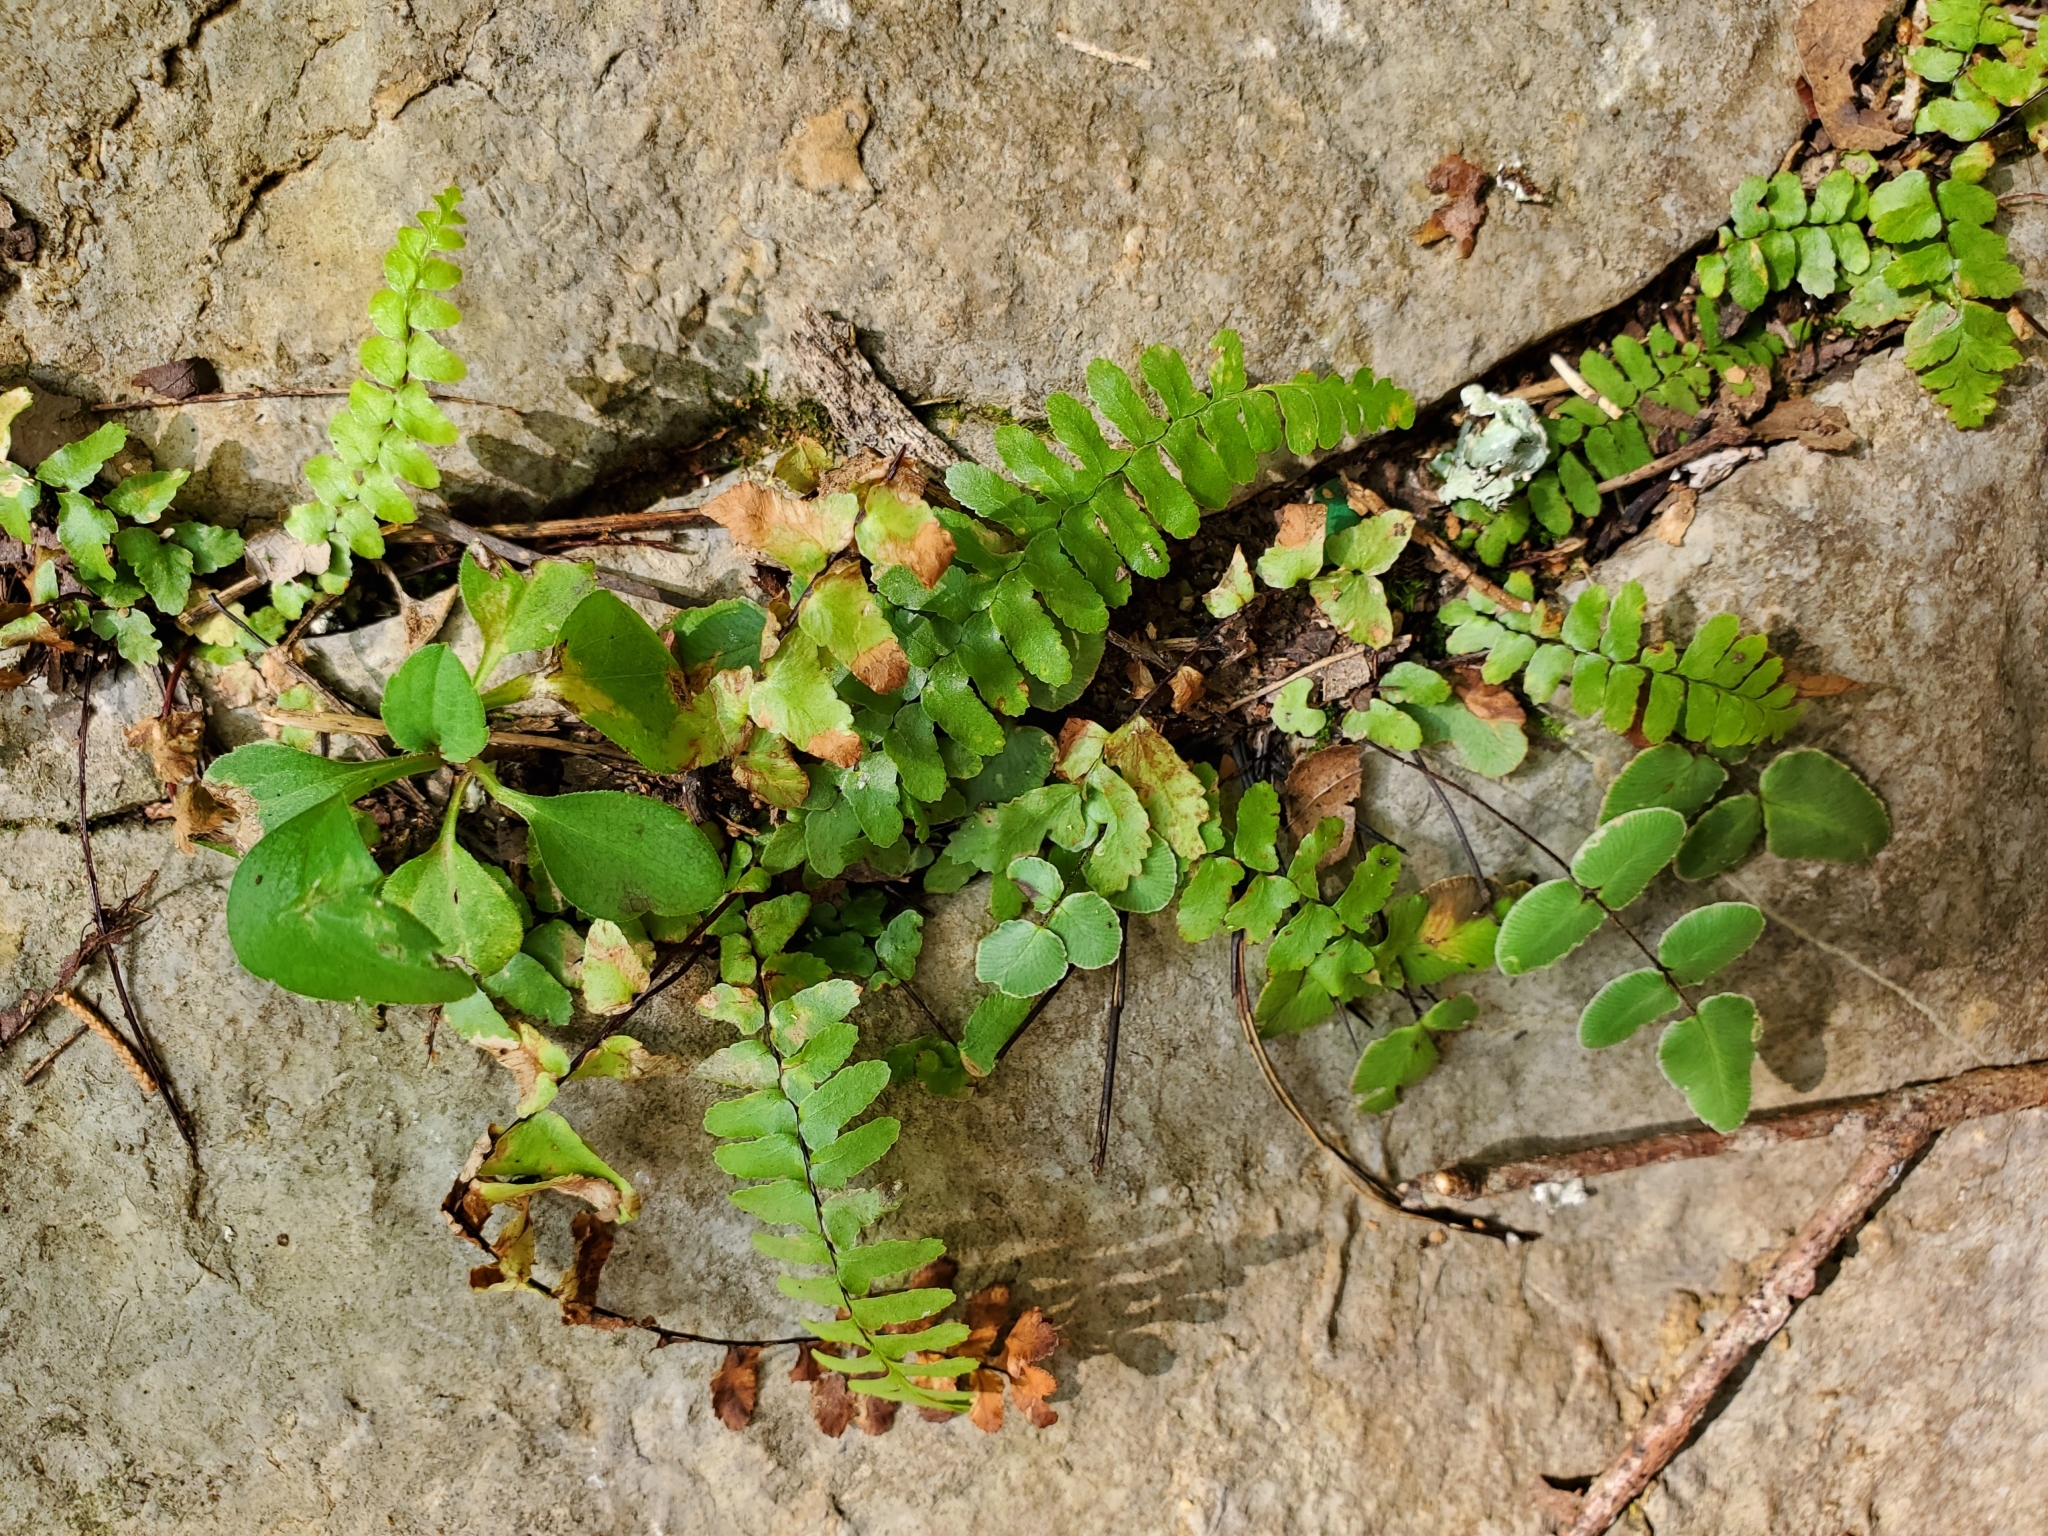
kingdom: Plantae
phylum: Tracheophyta
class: Polypodiopsida
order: Polypodiales
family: Aspleniaceae
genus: Asplenium
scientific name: Asplenium platyneuron
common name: Ebony spleenwort
